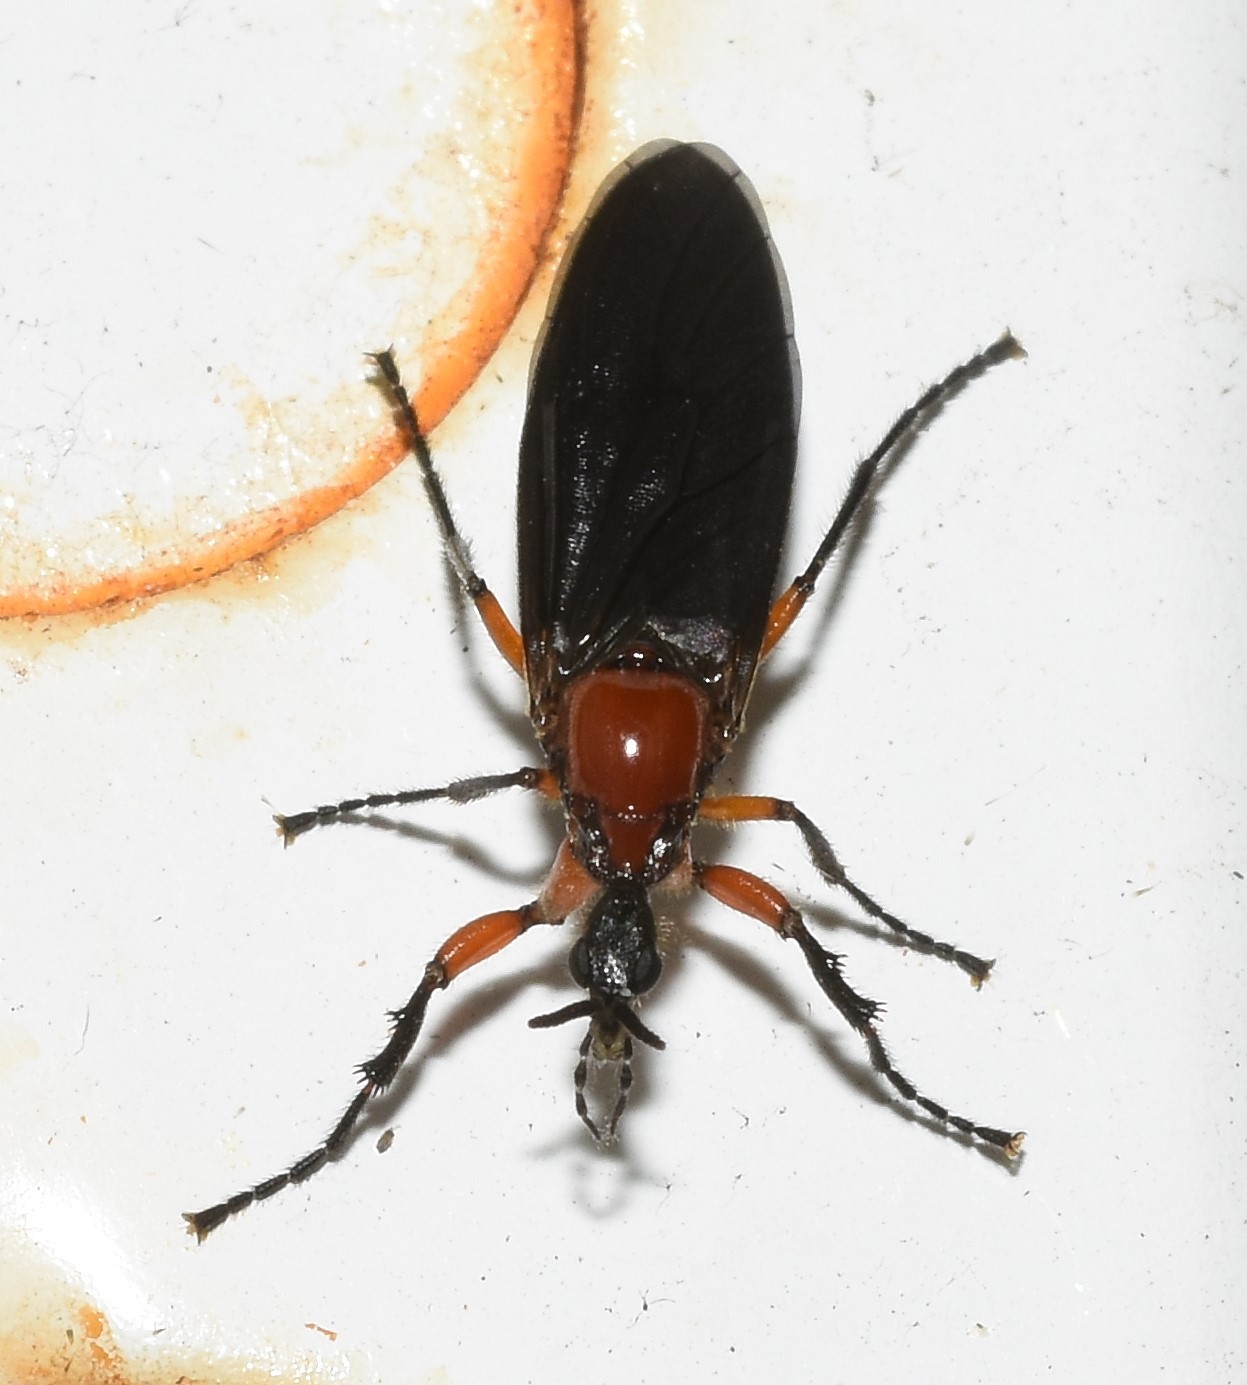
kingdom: Animalia
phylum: Arthropoda
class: Insecta
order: Diptera
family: Bibionidae
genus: Dilophus
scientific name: Dilophus serotinus
